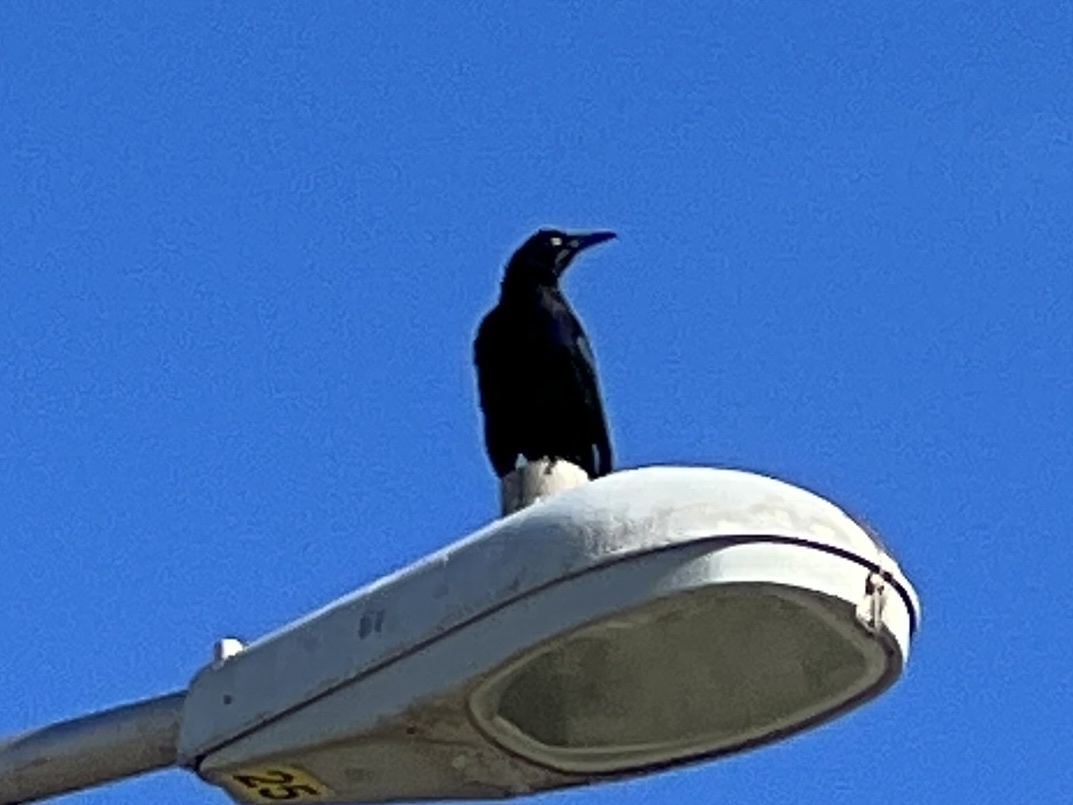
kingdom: Animalia
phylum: Chordata
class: Aves
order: Passeriformes
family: Icteridae
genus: Quiscalus
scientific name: Quiscalus mexicanus
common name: Great-tailed grackle
